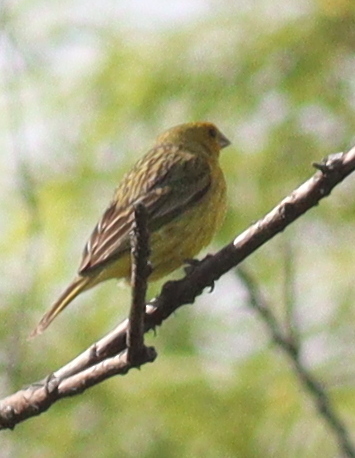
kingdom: Animalia
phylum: Chordata
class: Aves
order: Passeriformes
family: Thraupidae
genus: Sicalis
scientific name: Sicalis luteola
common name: Grassland yellow-finch
